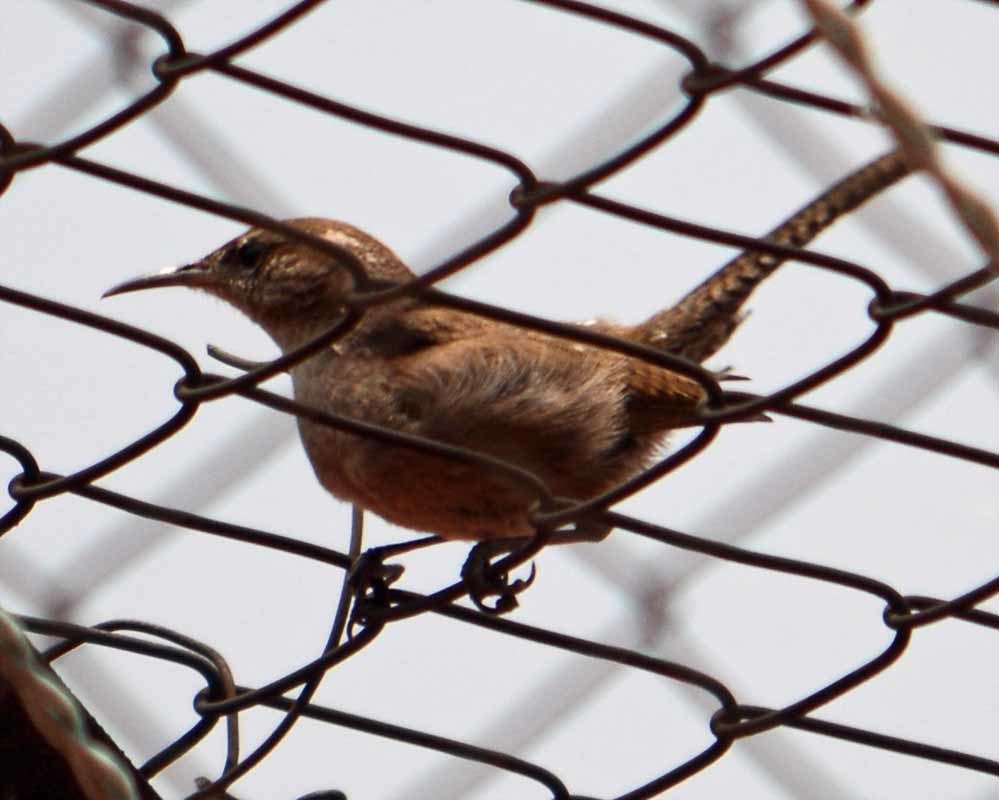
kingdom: Animalia
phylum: Chordata
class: Aves
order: Passeriformes
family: Troglodytidae
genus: Thryomanes
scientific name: Thryomanes bewickii
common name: Bewick's wren
